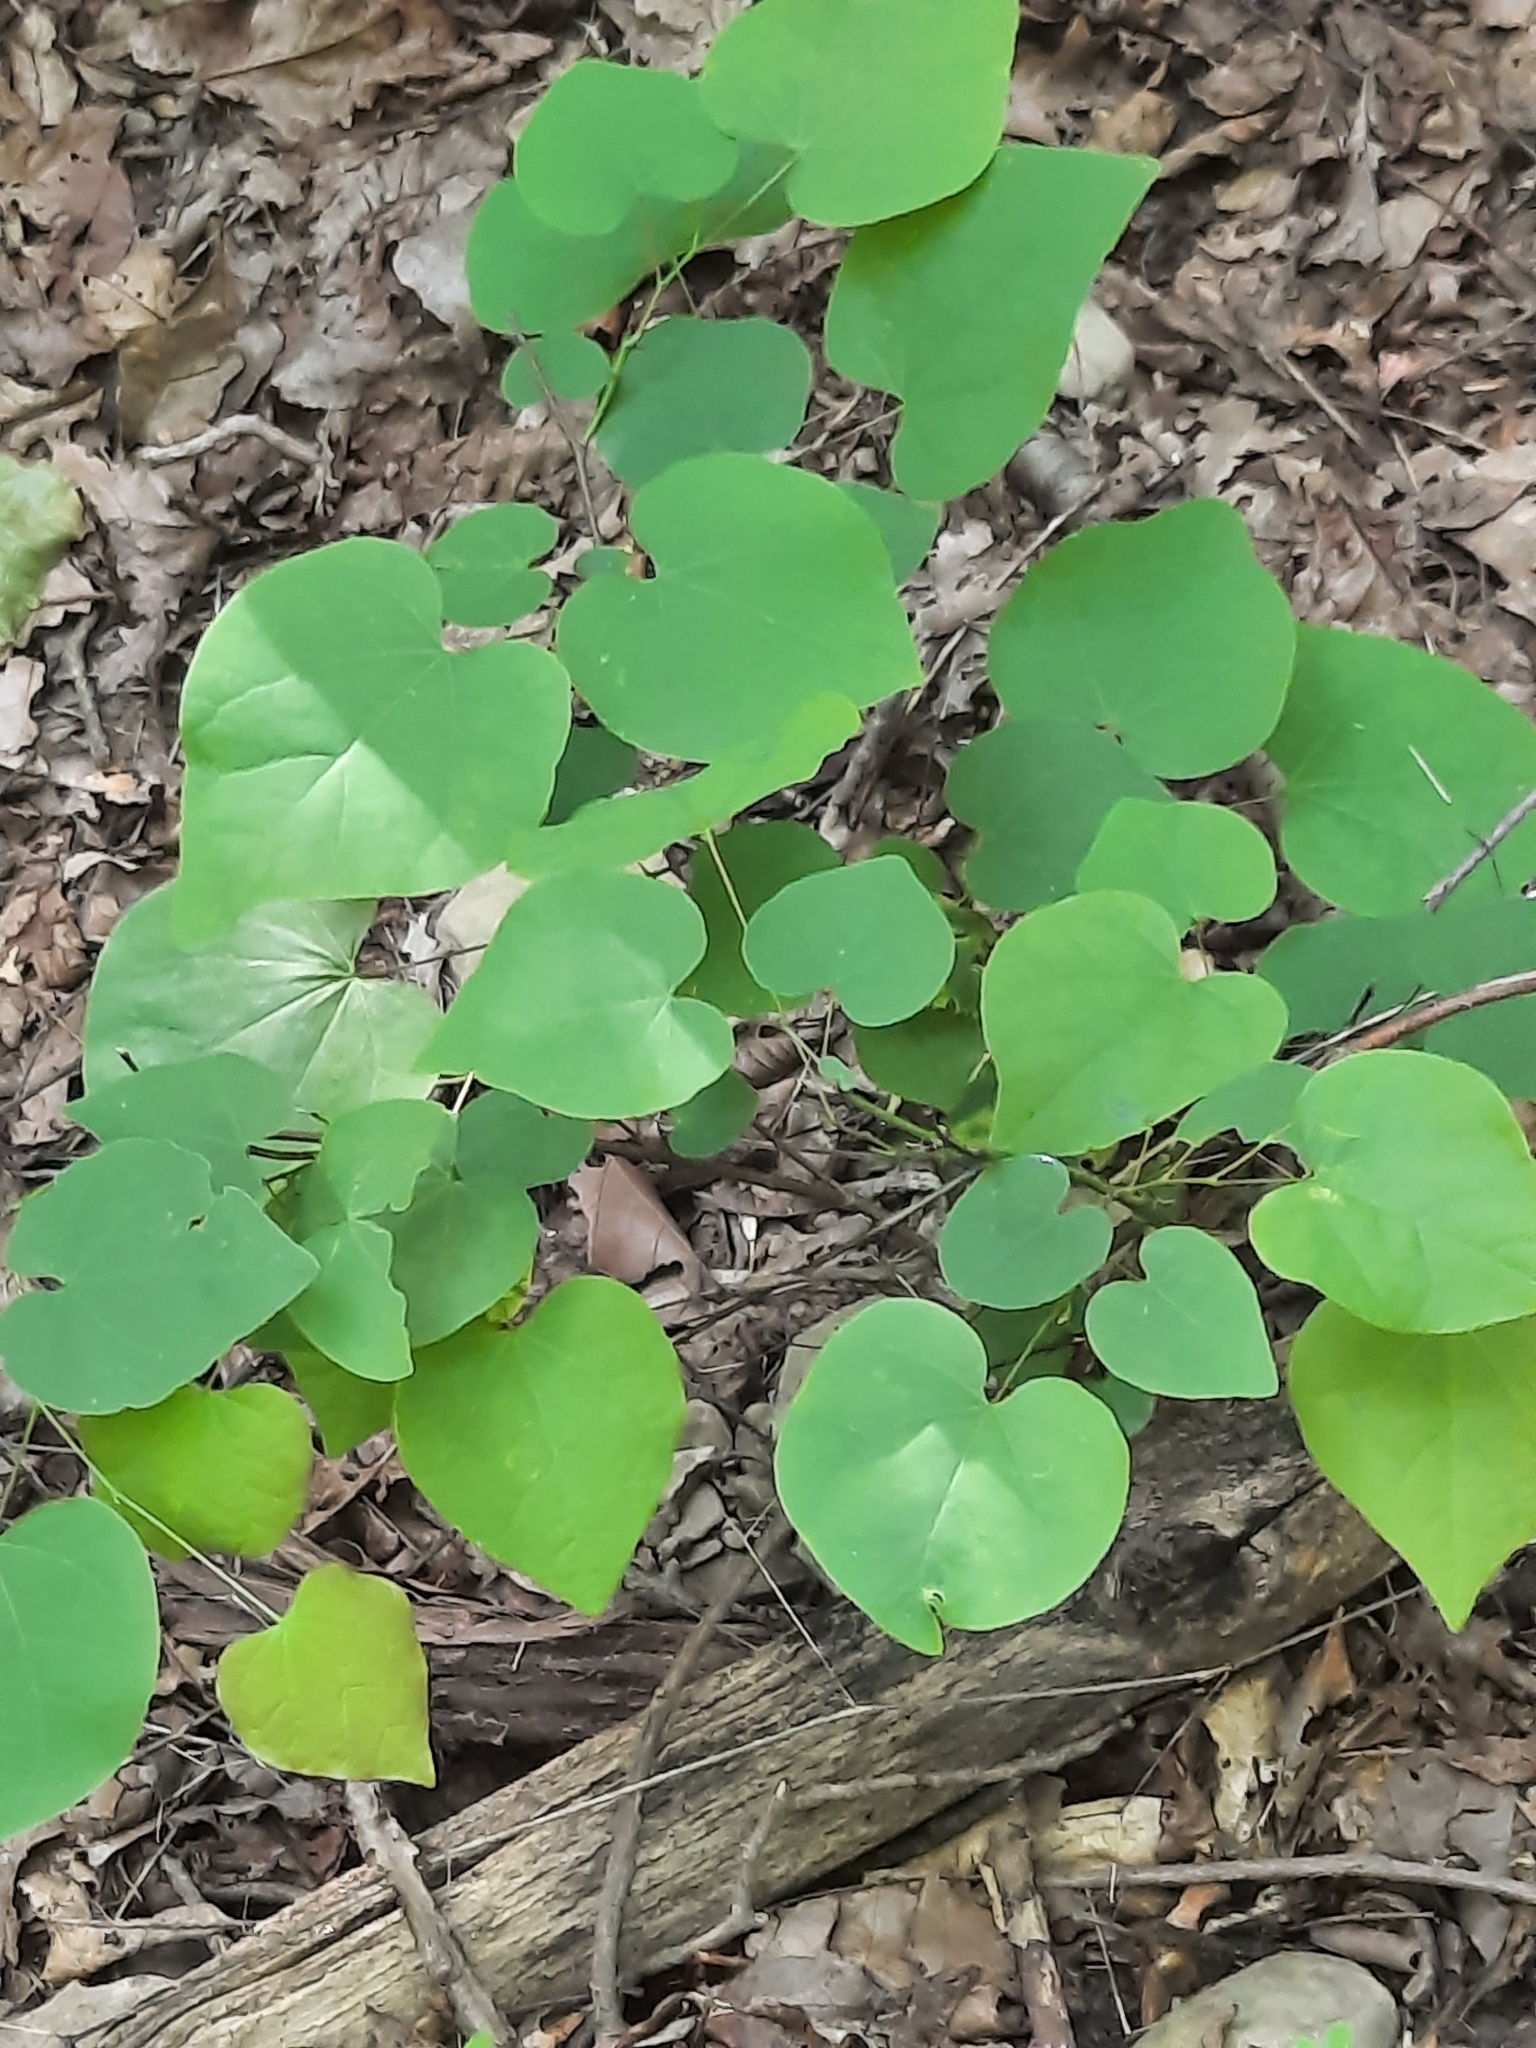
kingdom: Plantae
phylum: Tracheophyta
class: Magnoliopsida
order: Fabales
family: Fabaceae
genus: Cercis
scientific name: Cercis canadensis
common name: Eastern redbud
